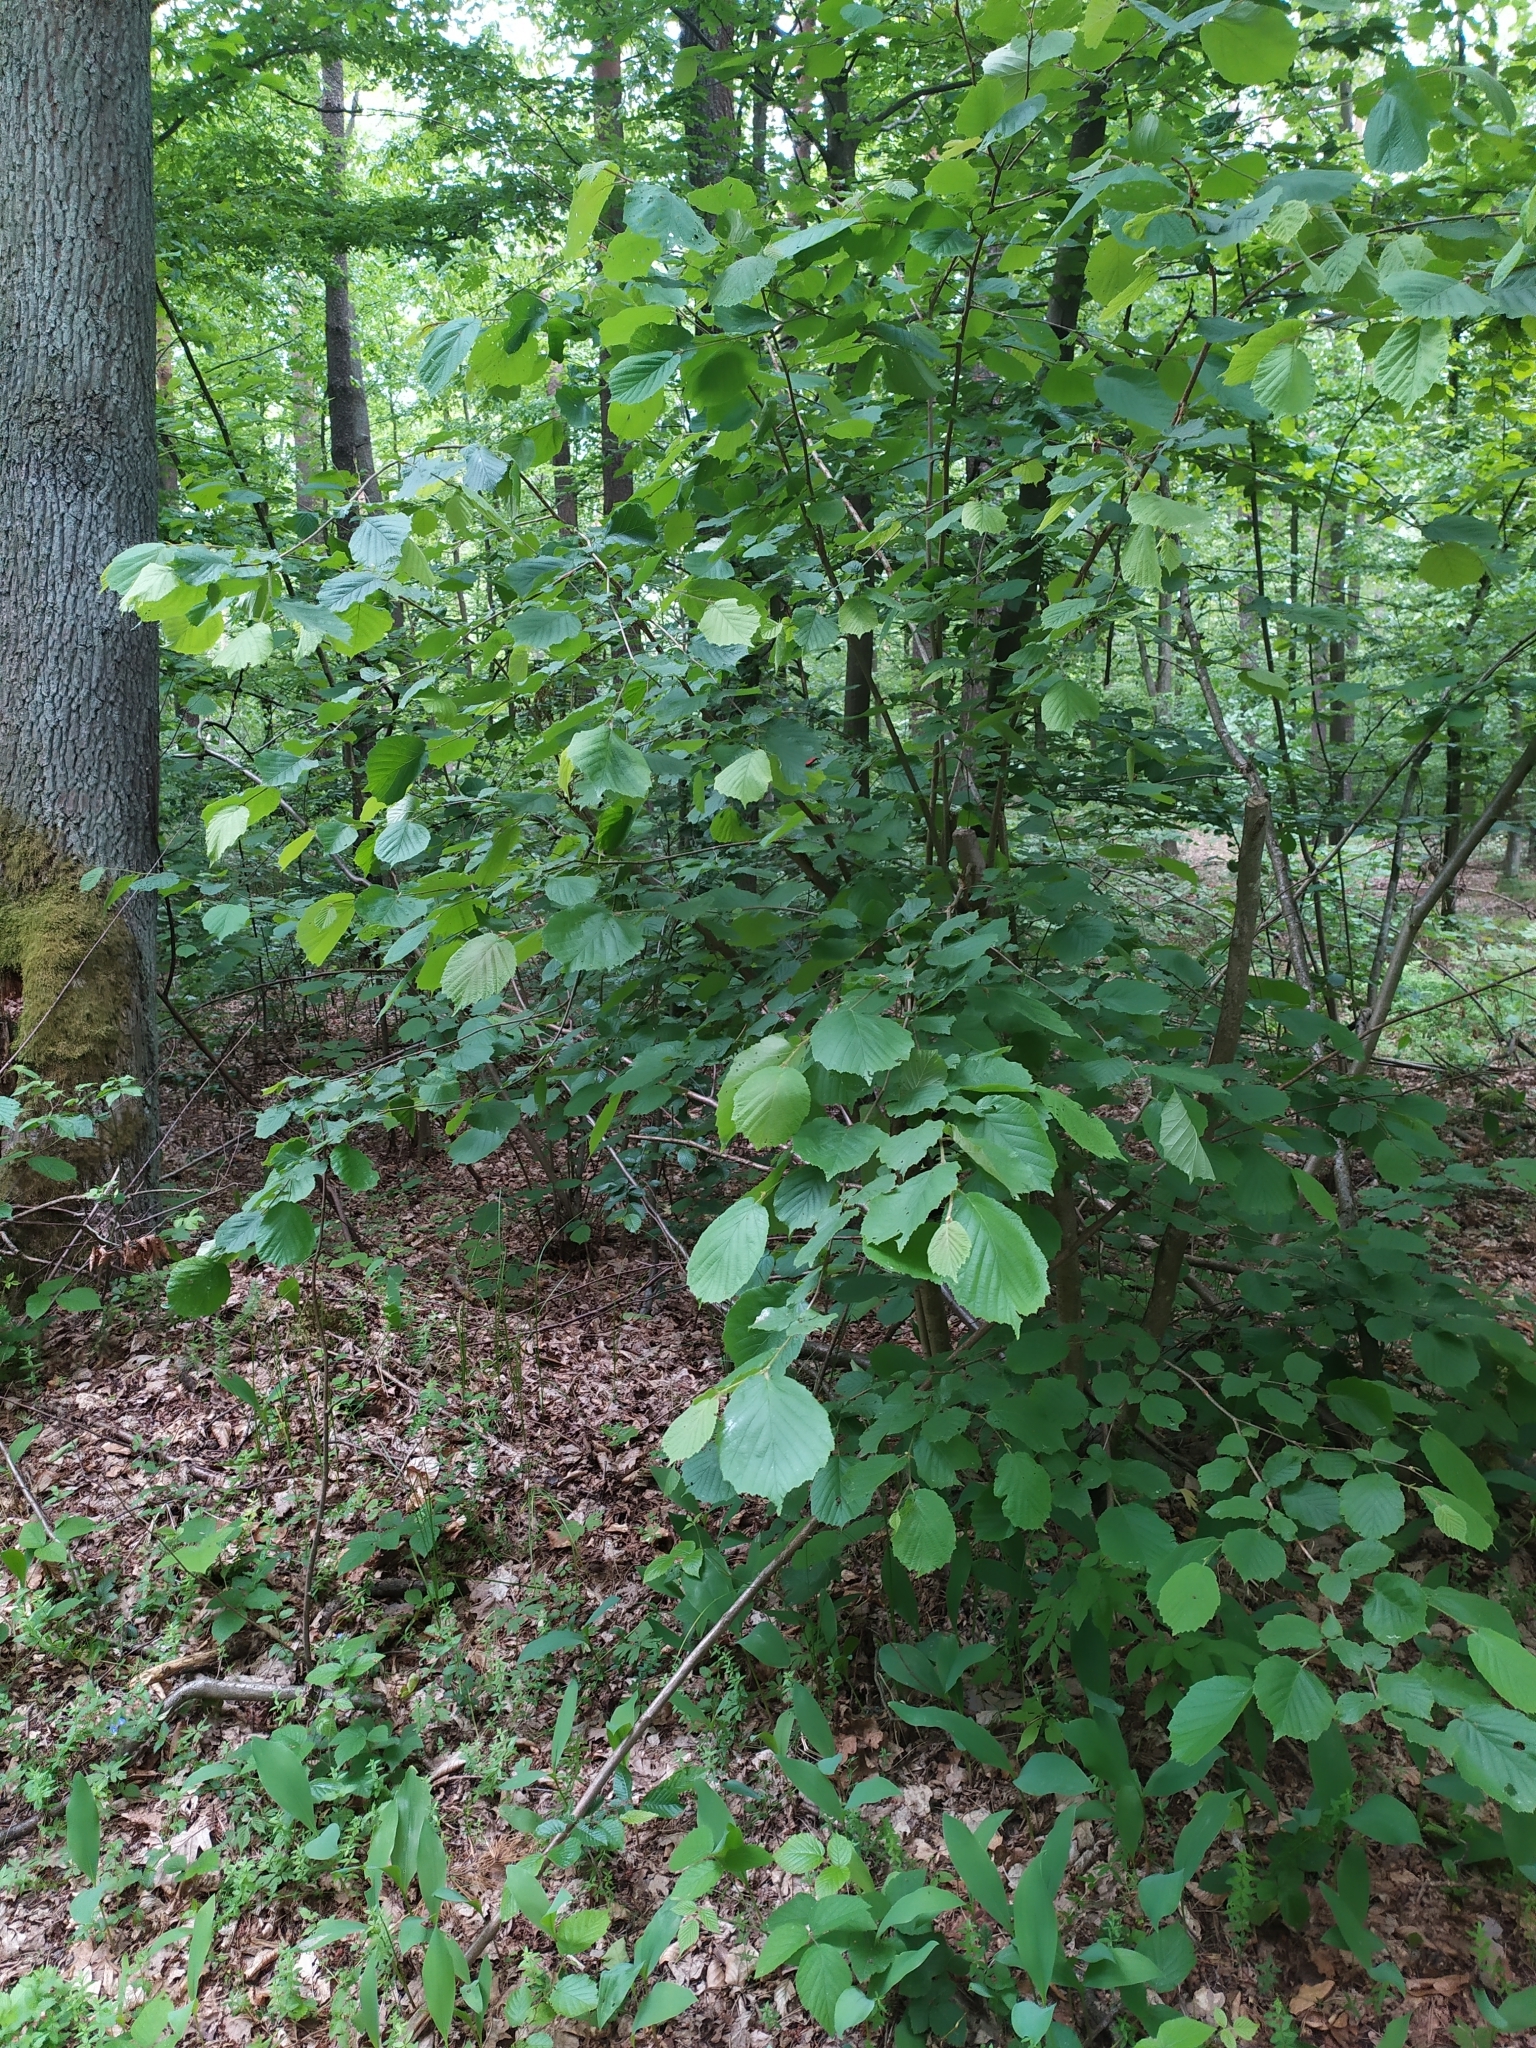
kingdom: Plantae
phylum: Tracheophyta
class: Magnoliopsida
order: Fagales
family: Betulaceae
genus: Corylus
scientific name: Corylus avellana
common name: European hazel
